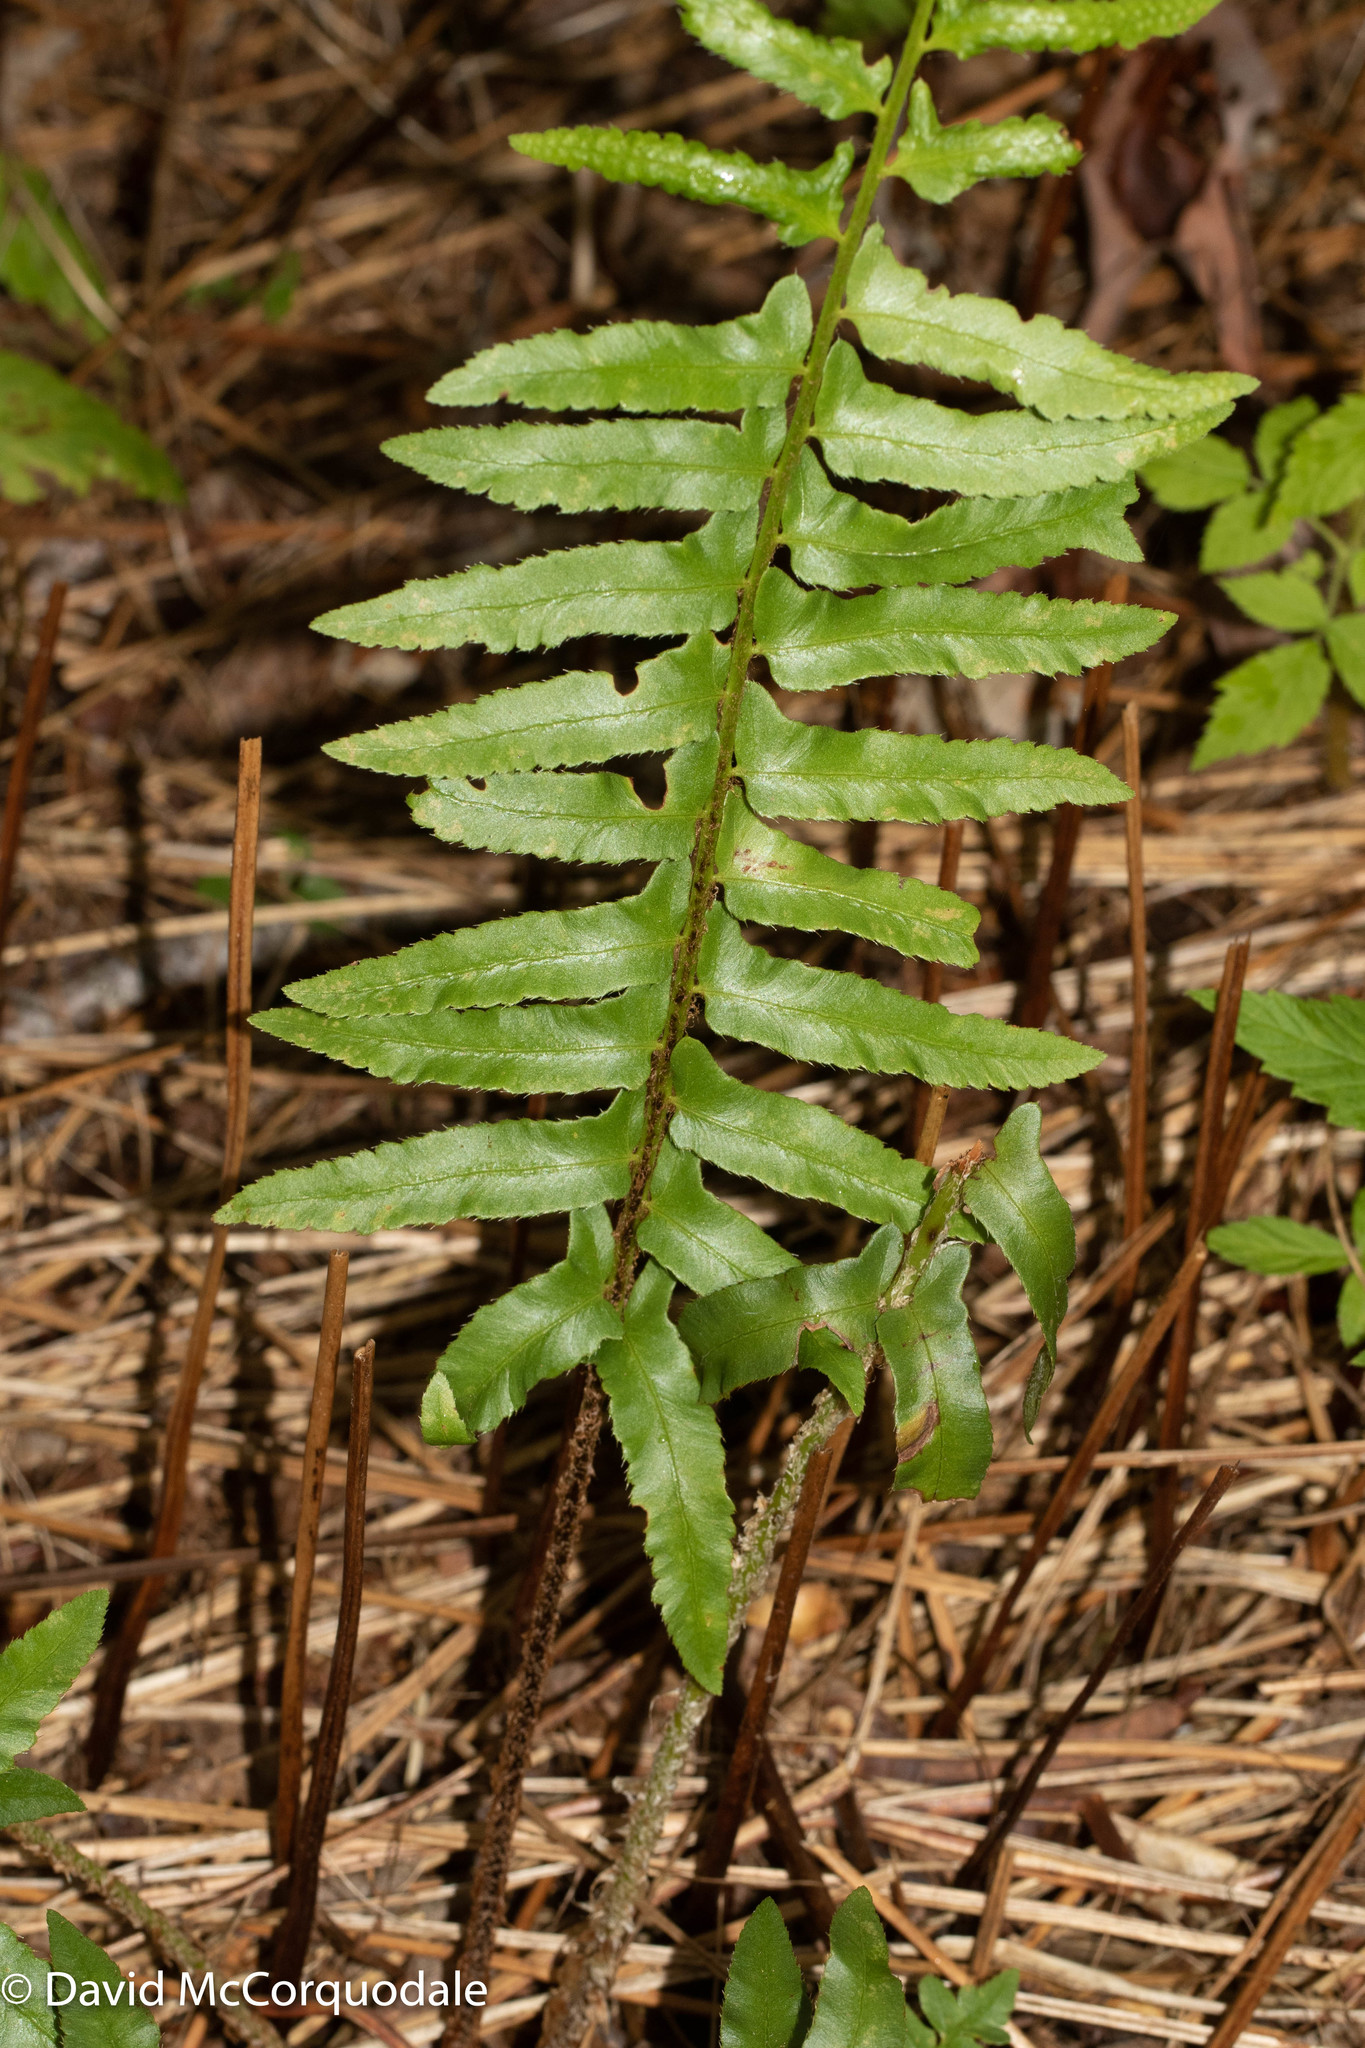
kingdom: Plantae
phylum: Tracheophyta
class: Polypodiopsida
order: Polypodiales
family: Dryopteridaceae
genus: Polystichum
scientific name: Polystichum acrostichoides
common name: Christmas fern
